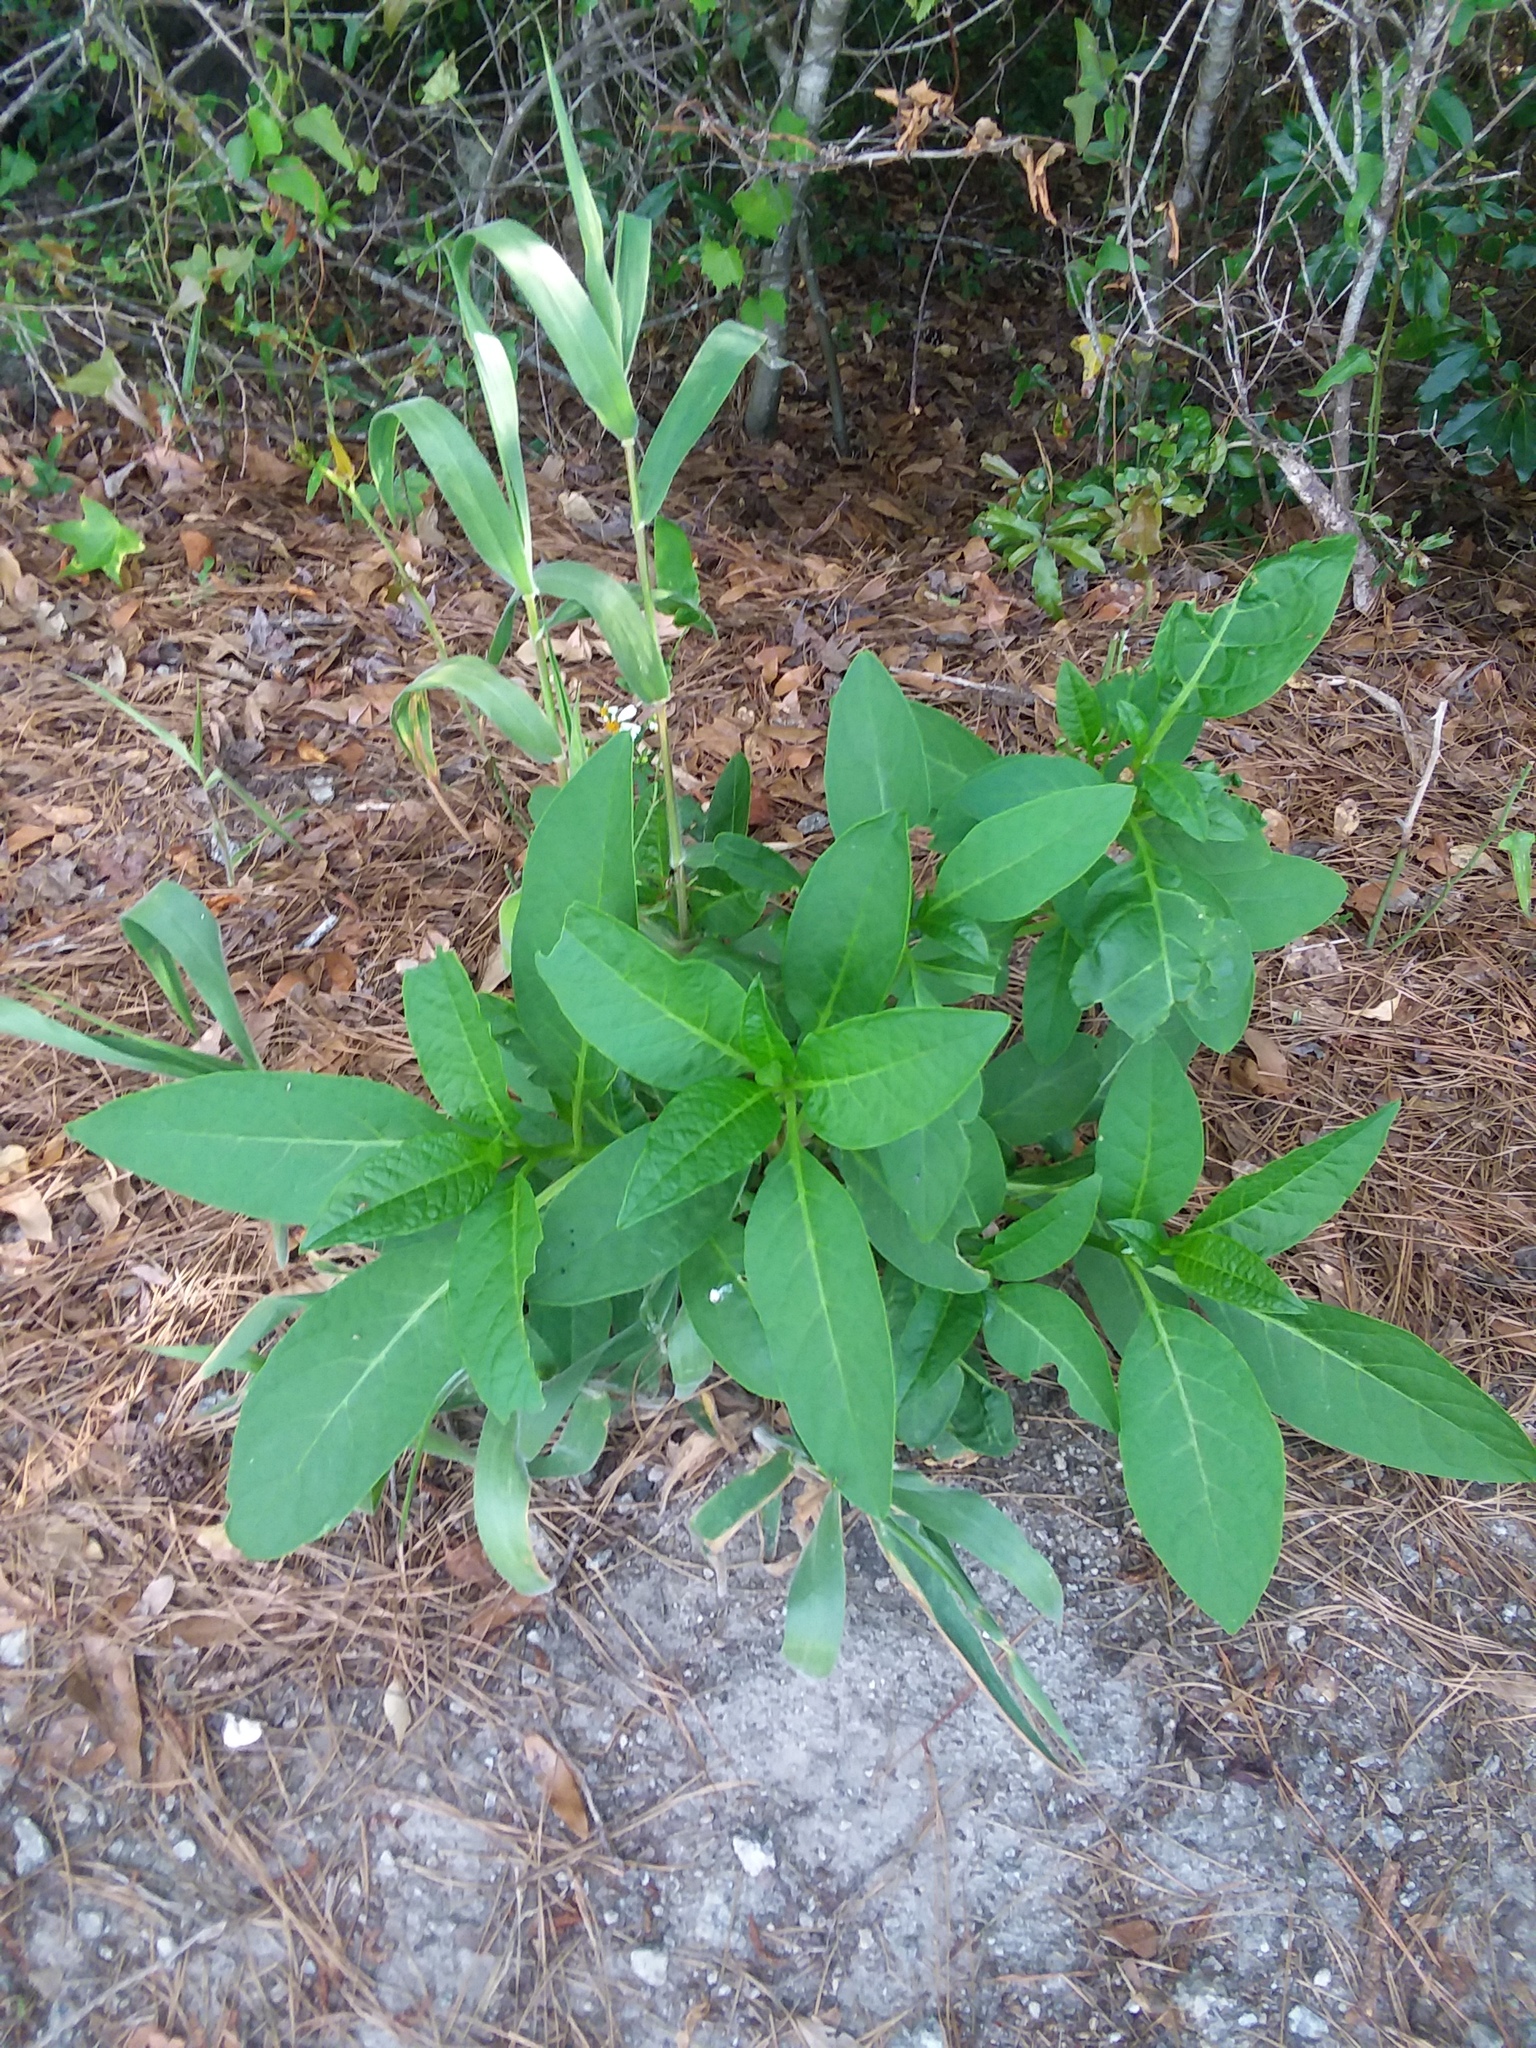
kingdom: Plantae
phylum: Tracheophyta
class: Magnoliopsida
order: Caryophyllales
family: Phytolaccaceae
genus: Phytolacca
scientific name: Phytolacca americana
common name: American pokeweed
